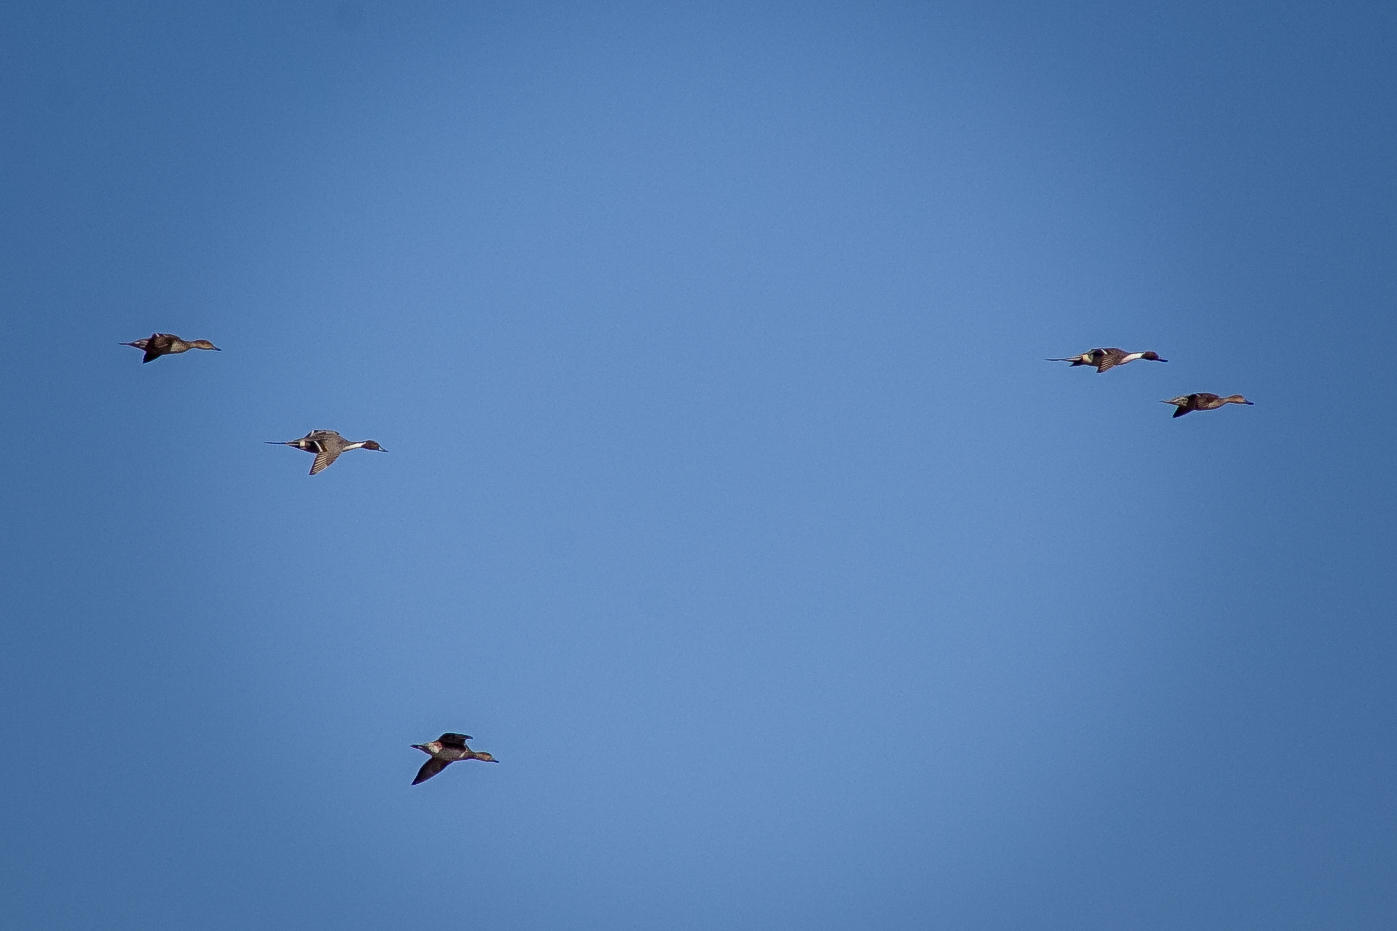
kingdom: Animalia
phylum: Chordata
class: Aves
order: Anseriformes
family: Anatidae
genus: Anas
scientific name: Anas acuta
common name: Northern pintail
